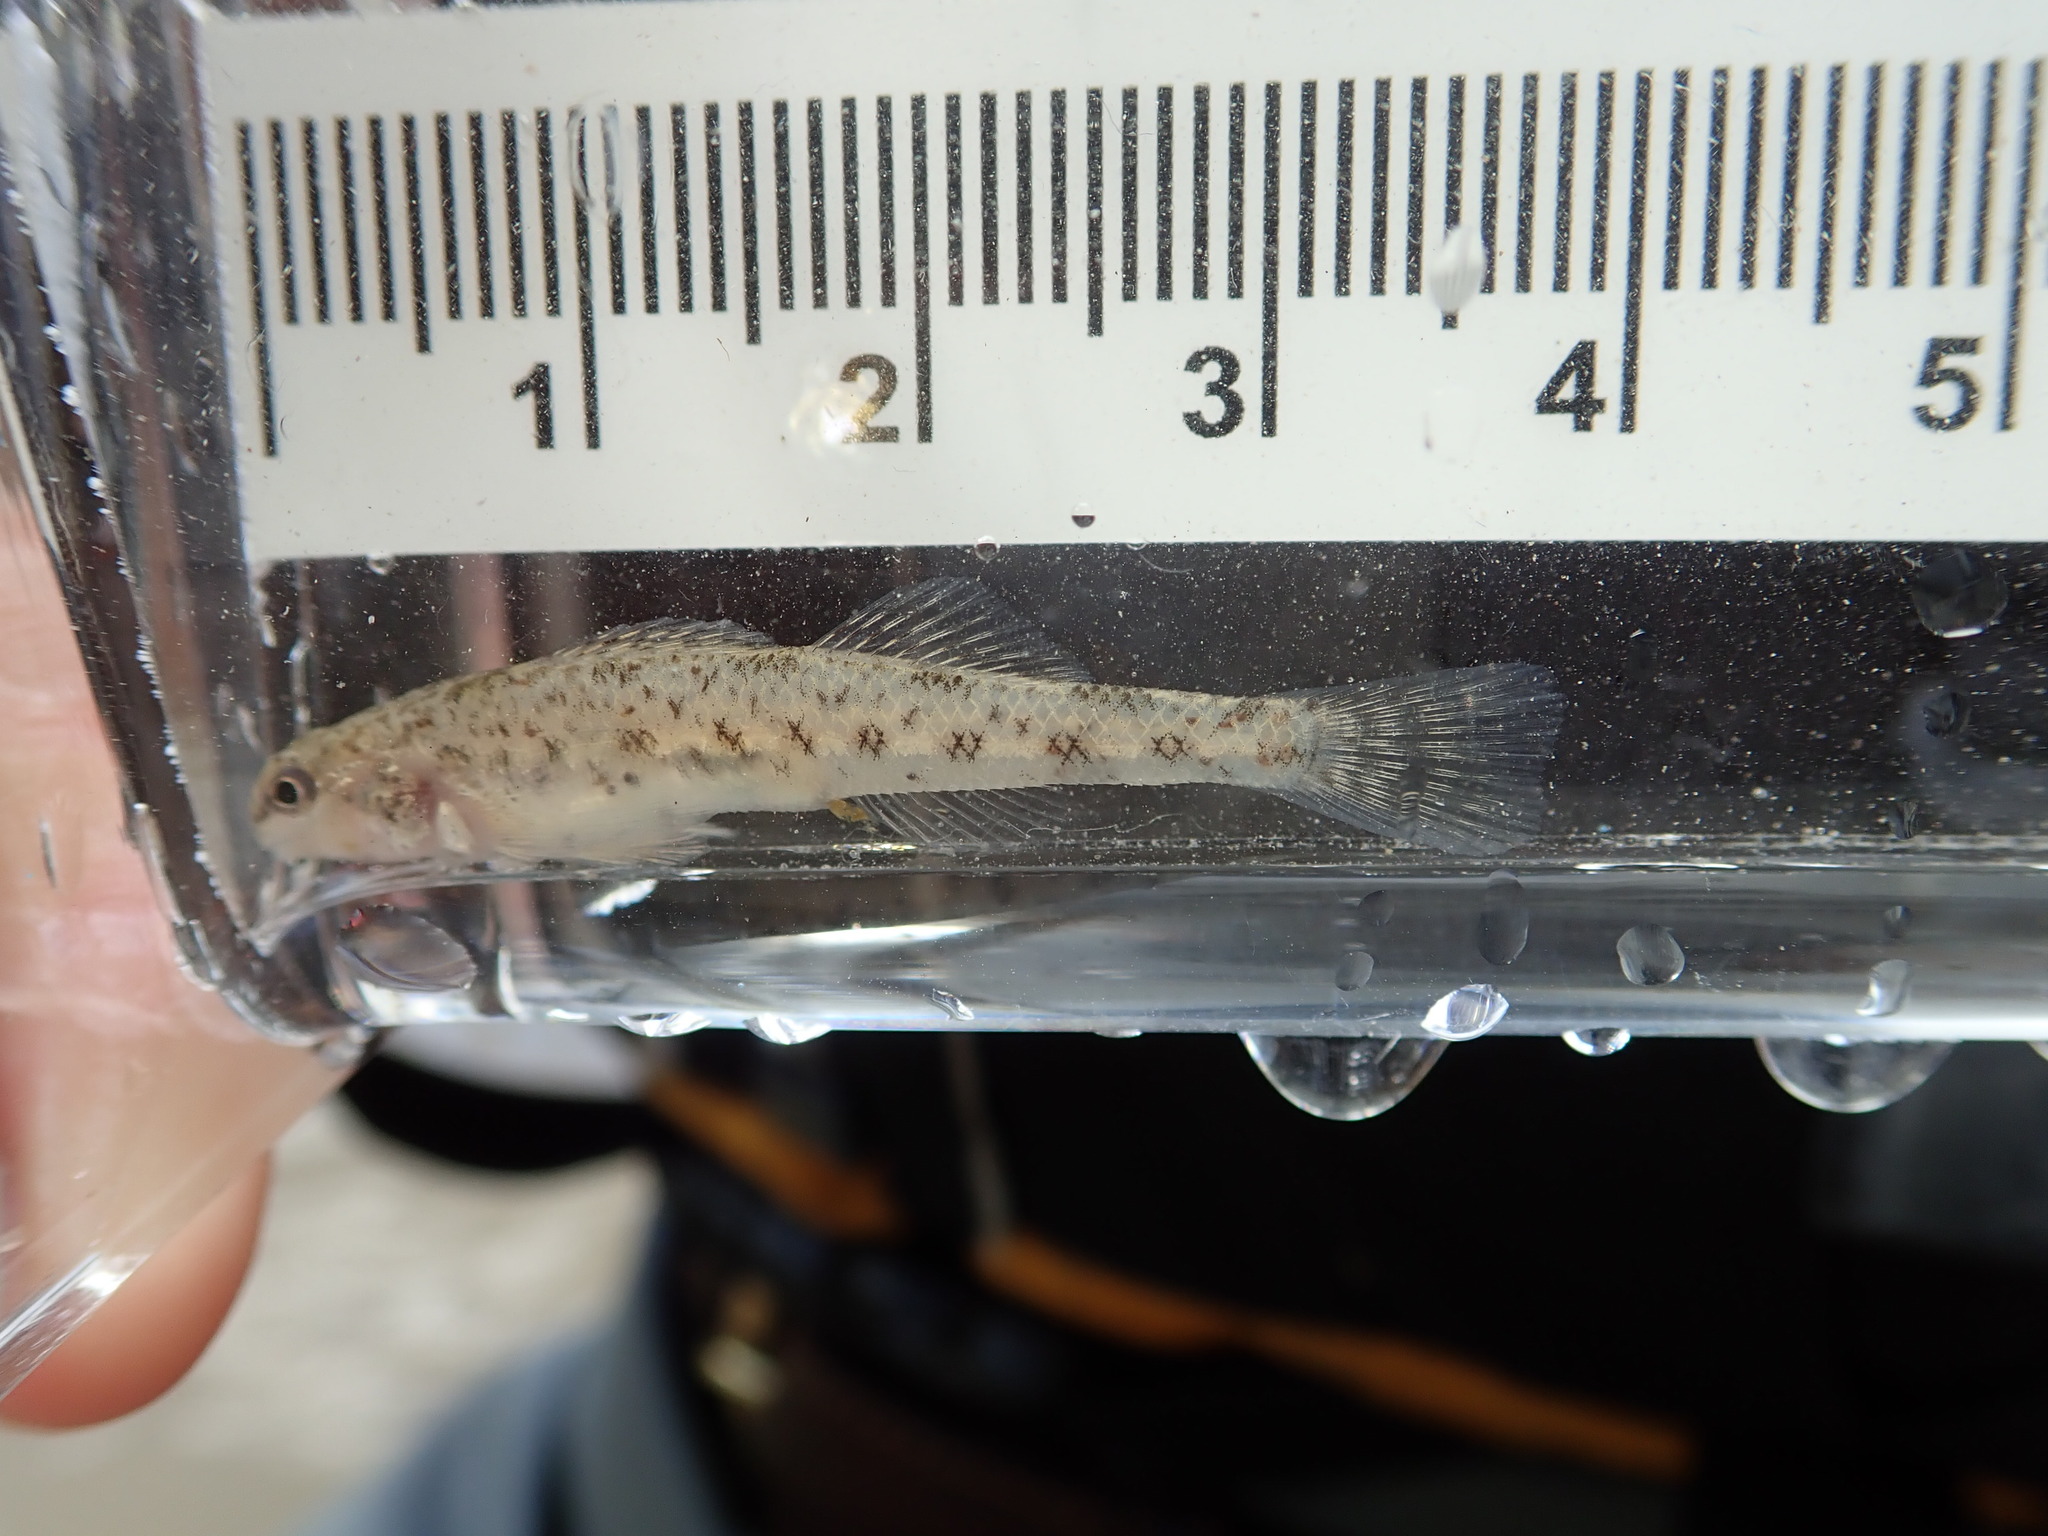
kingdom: Animalia
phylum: Chordata
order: Perciformes
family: Percidae
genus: Etheostoma
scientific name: Etheostoma nigrum
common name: Johnny darter
